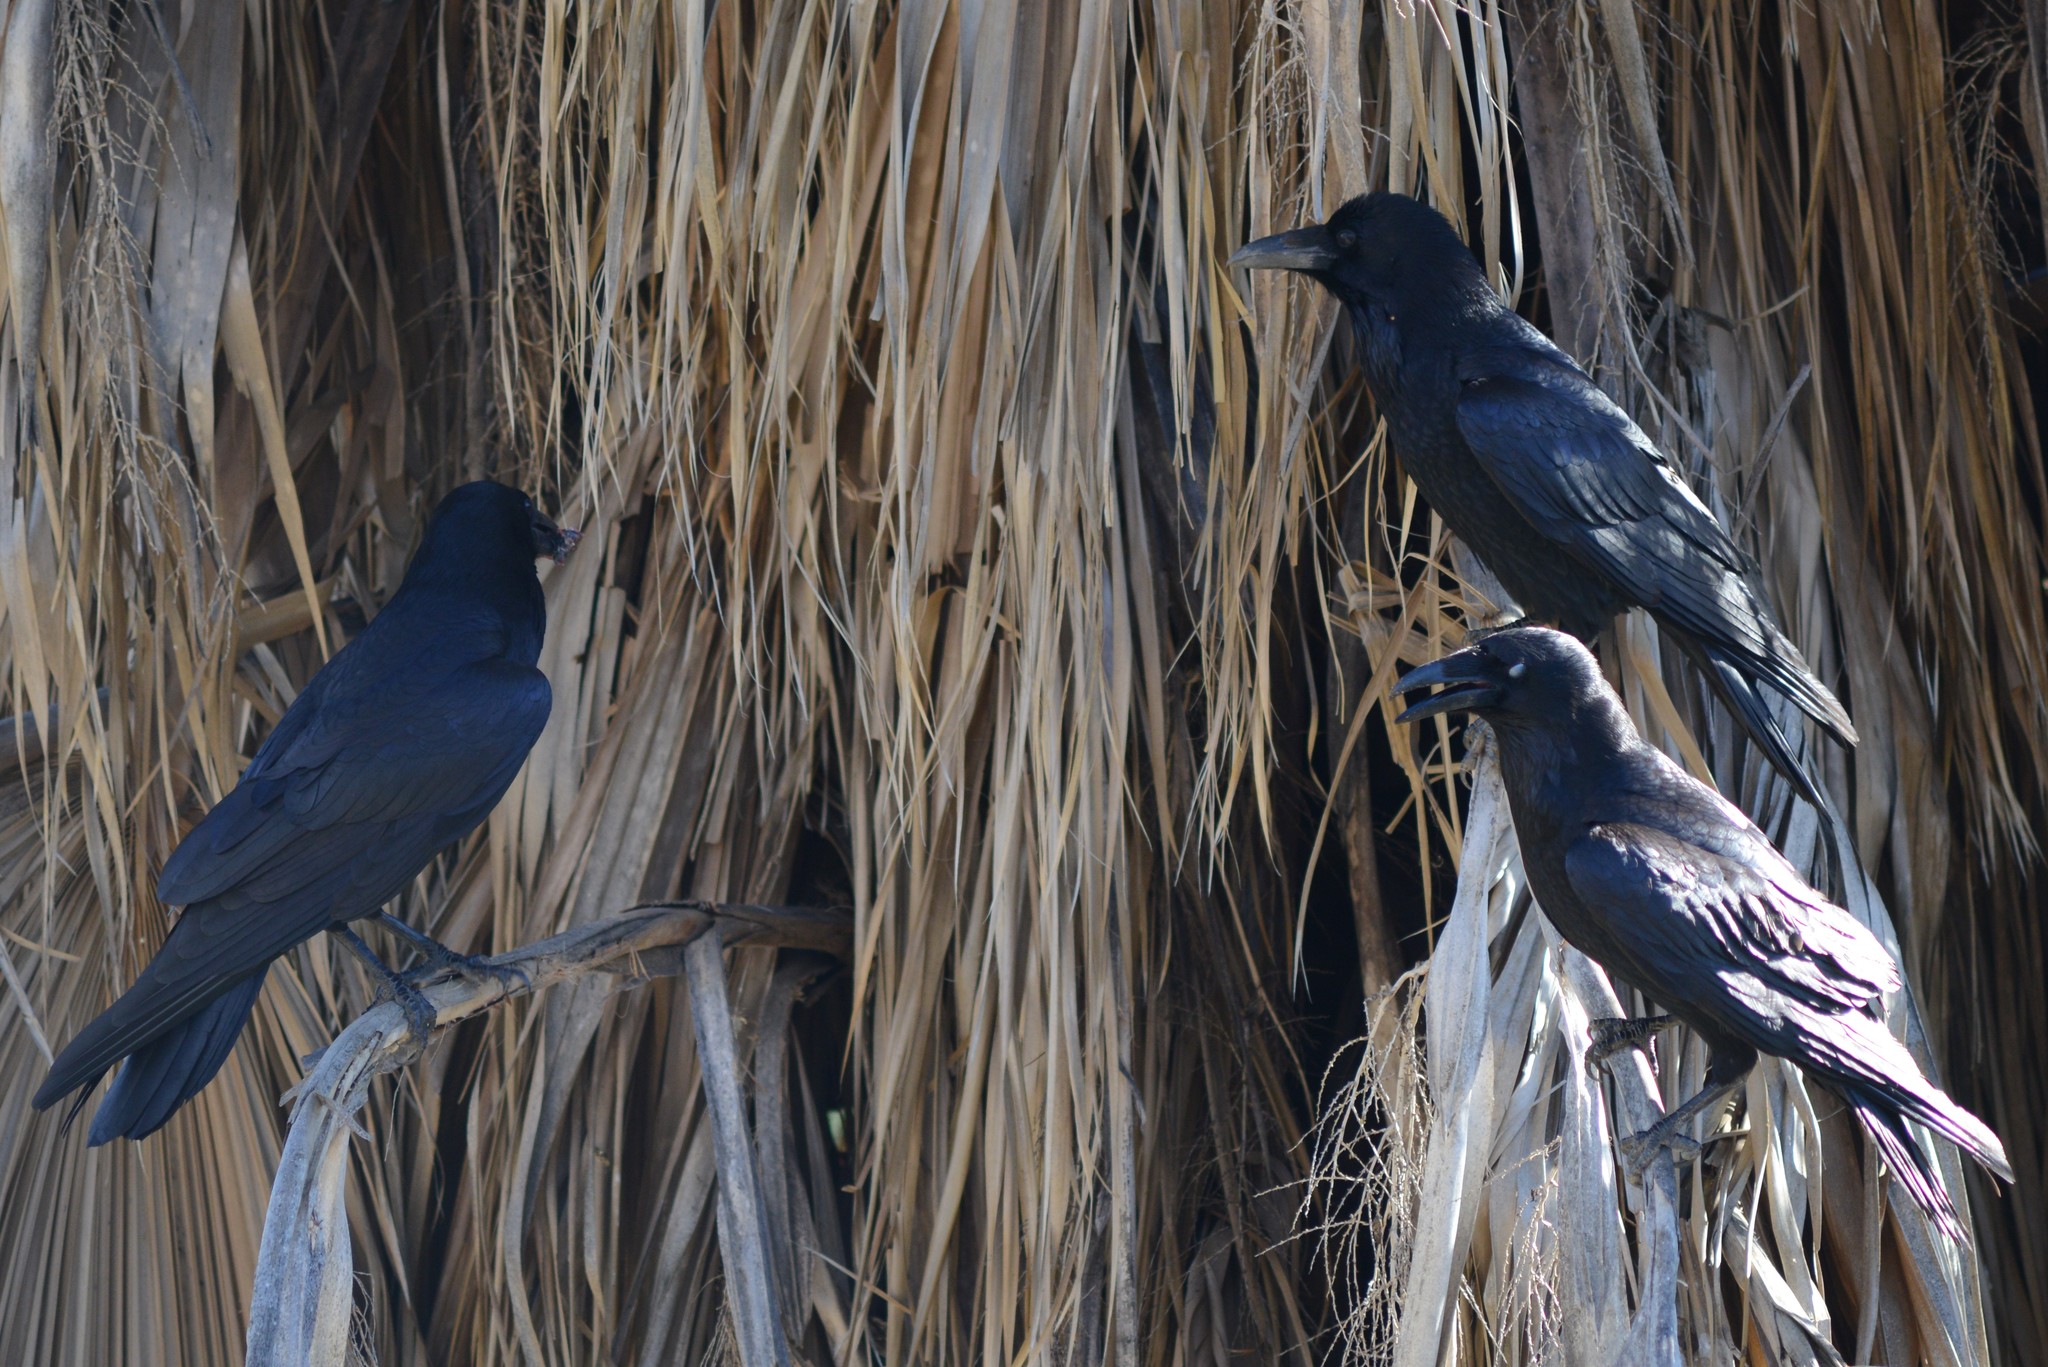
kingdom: Animalia
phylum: Chordata
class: Aves
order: Passeriformes
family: Corvidae
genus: Corvus
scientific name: Corvus corax
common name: Common raven
